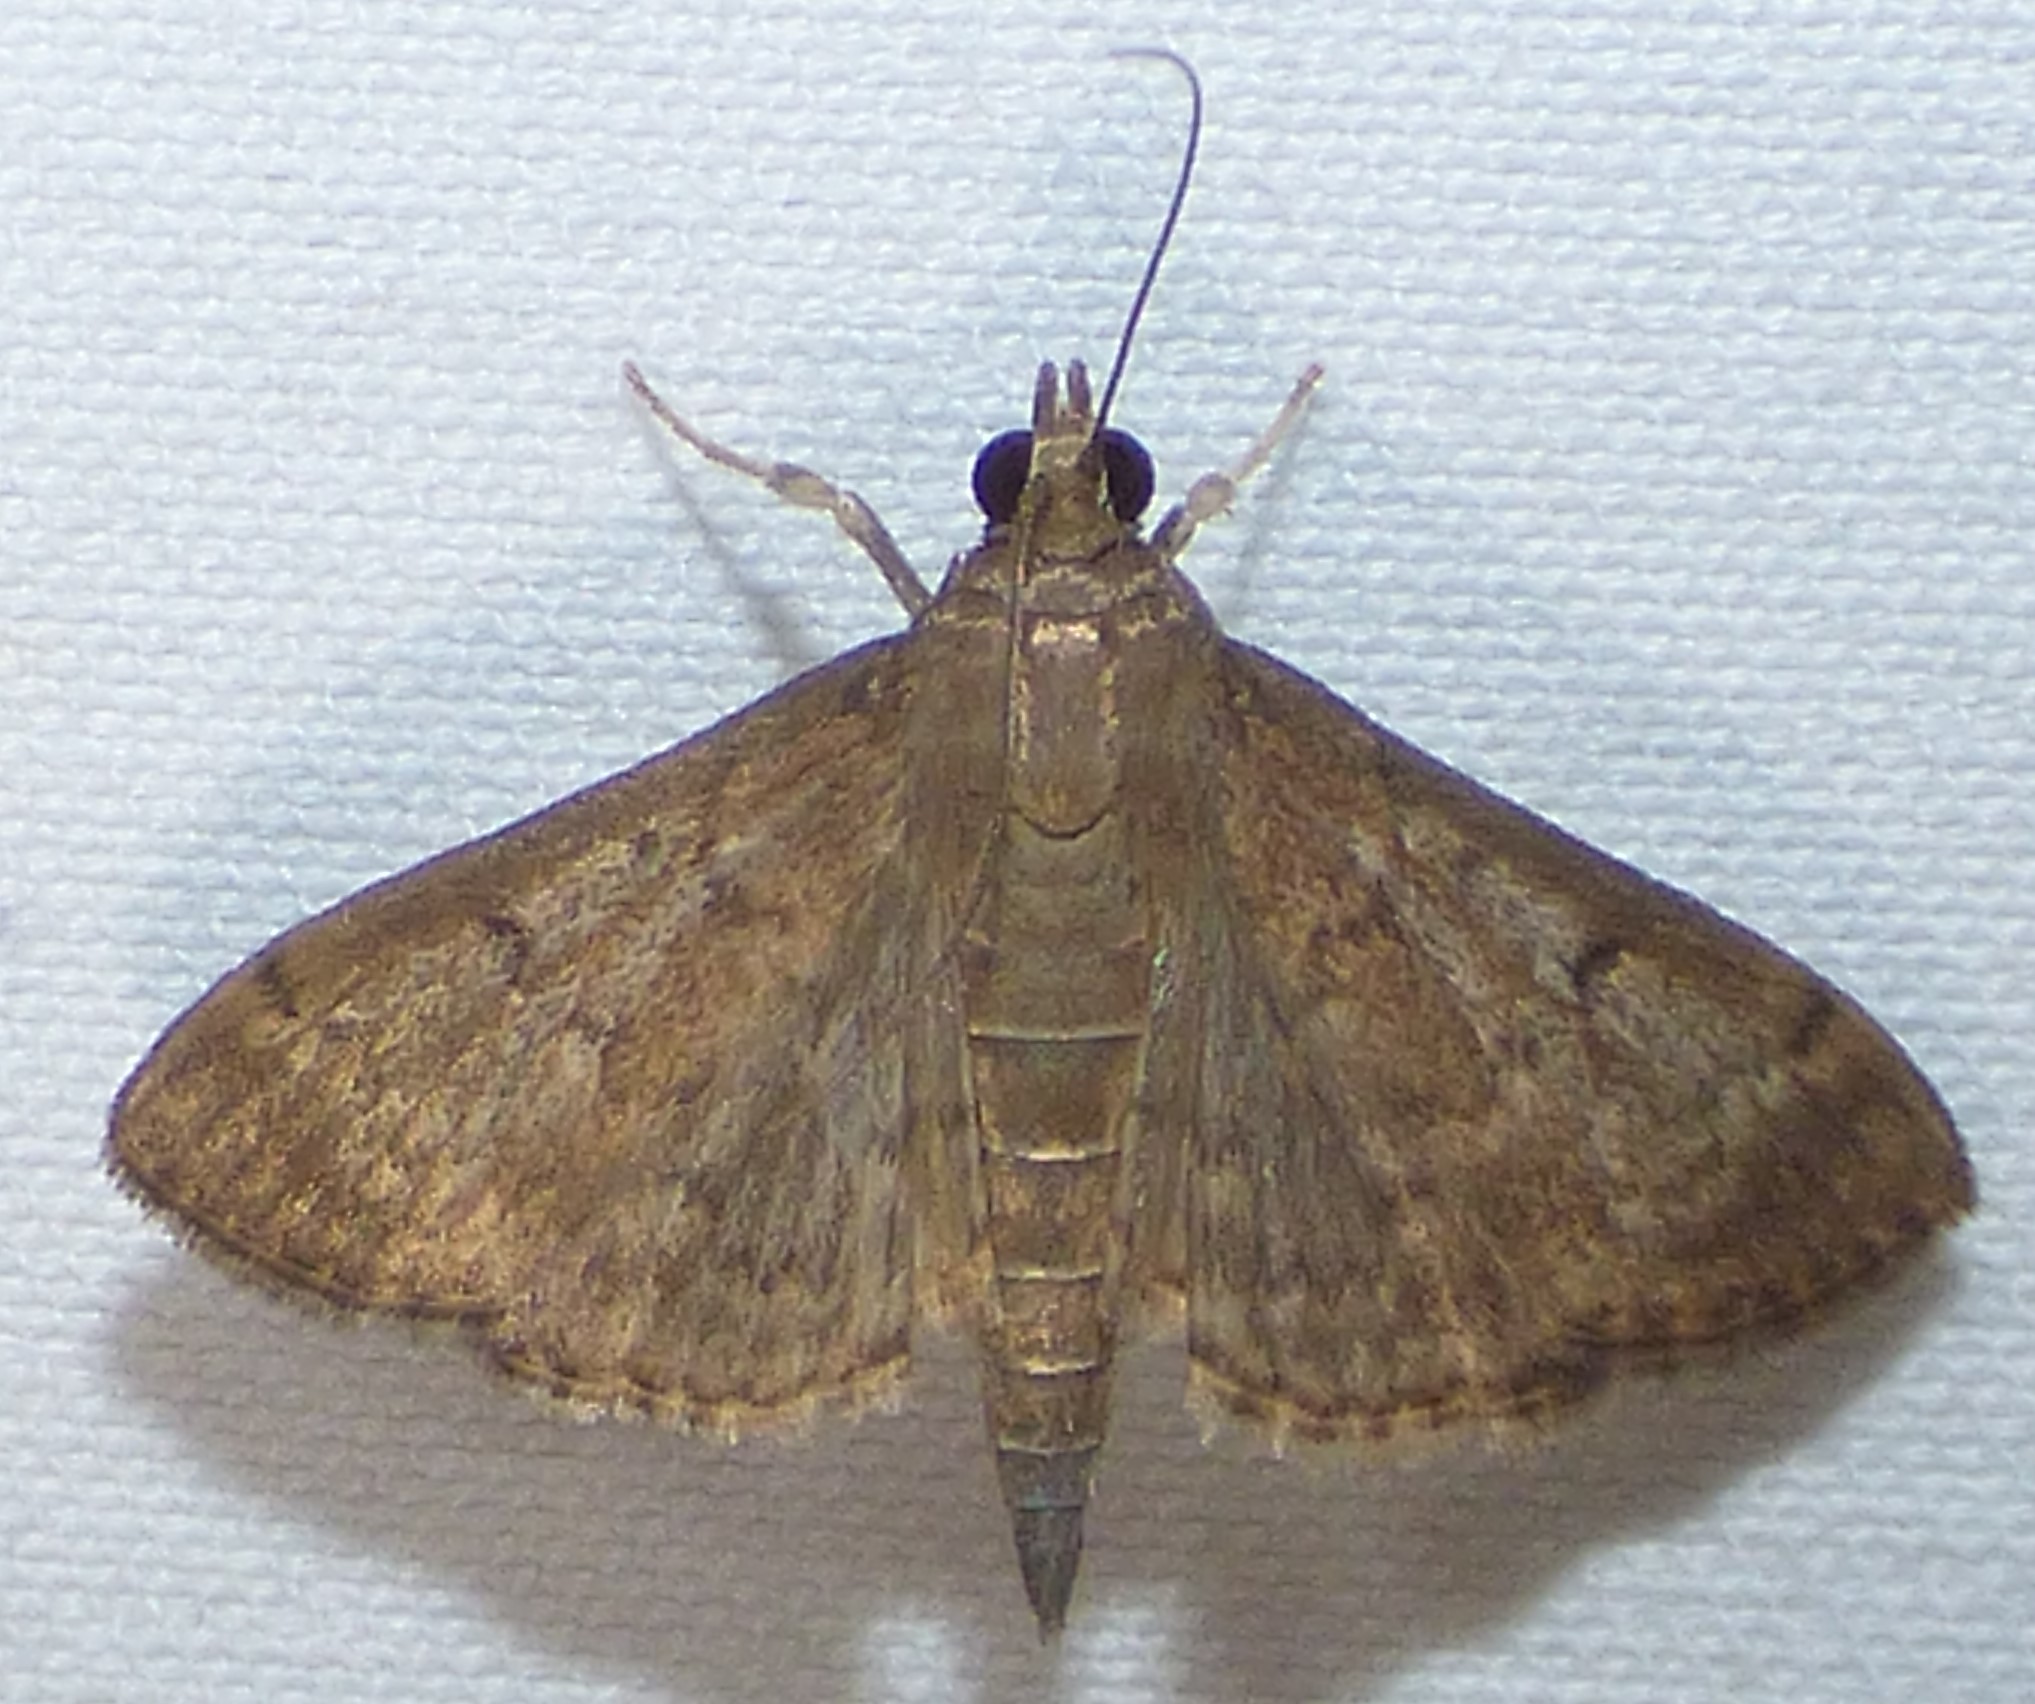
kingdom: Animalia
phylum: Arthropoda
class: Insecta
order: Lepidoptera
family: Crambidae
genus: Herpetogramma
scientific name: Herpetogramma phaeopteralis
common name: Dusky herpetogramma moth
